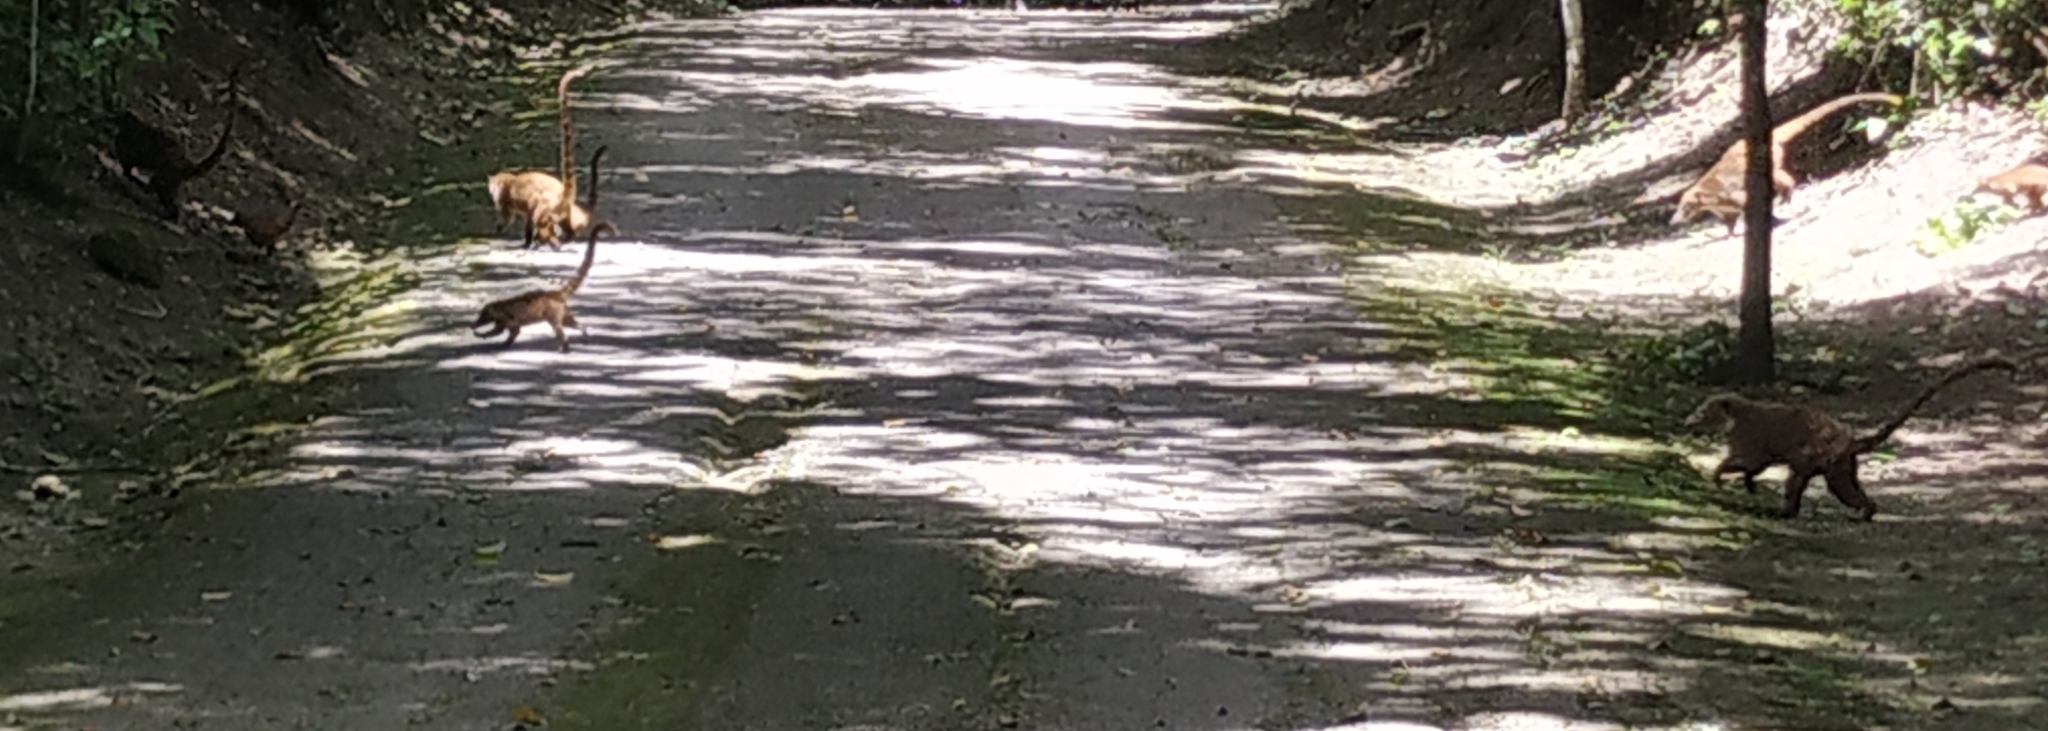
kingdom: Animalia
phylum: Chordata
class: Mammalia
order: Carnivora
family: Procyonidae
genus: Nasua
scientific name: Nasua narica
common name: White-nosed coati
